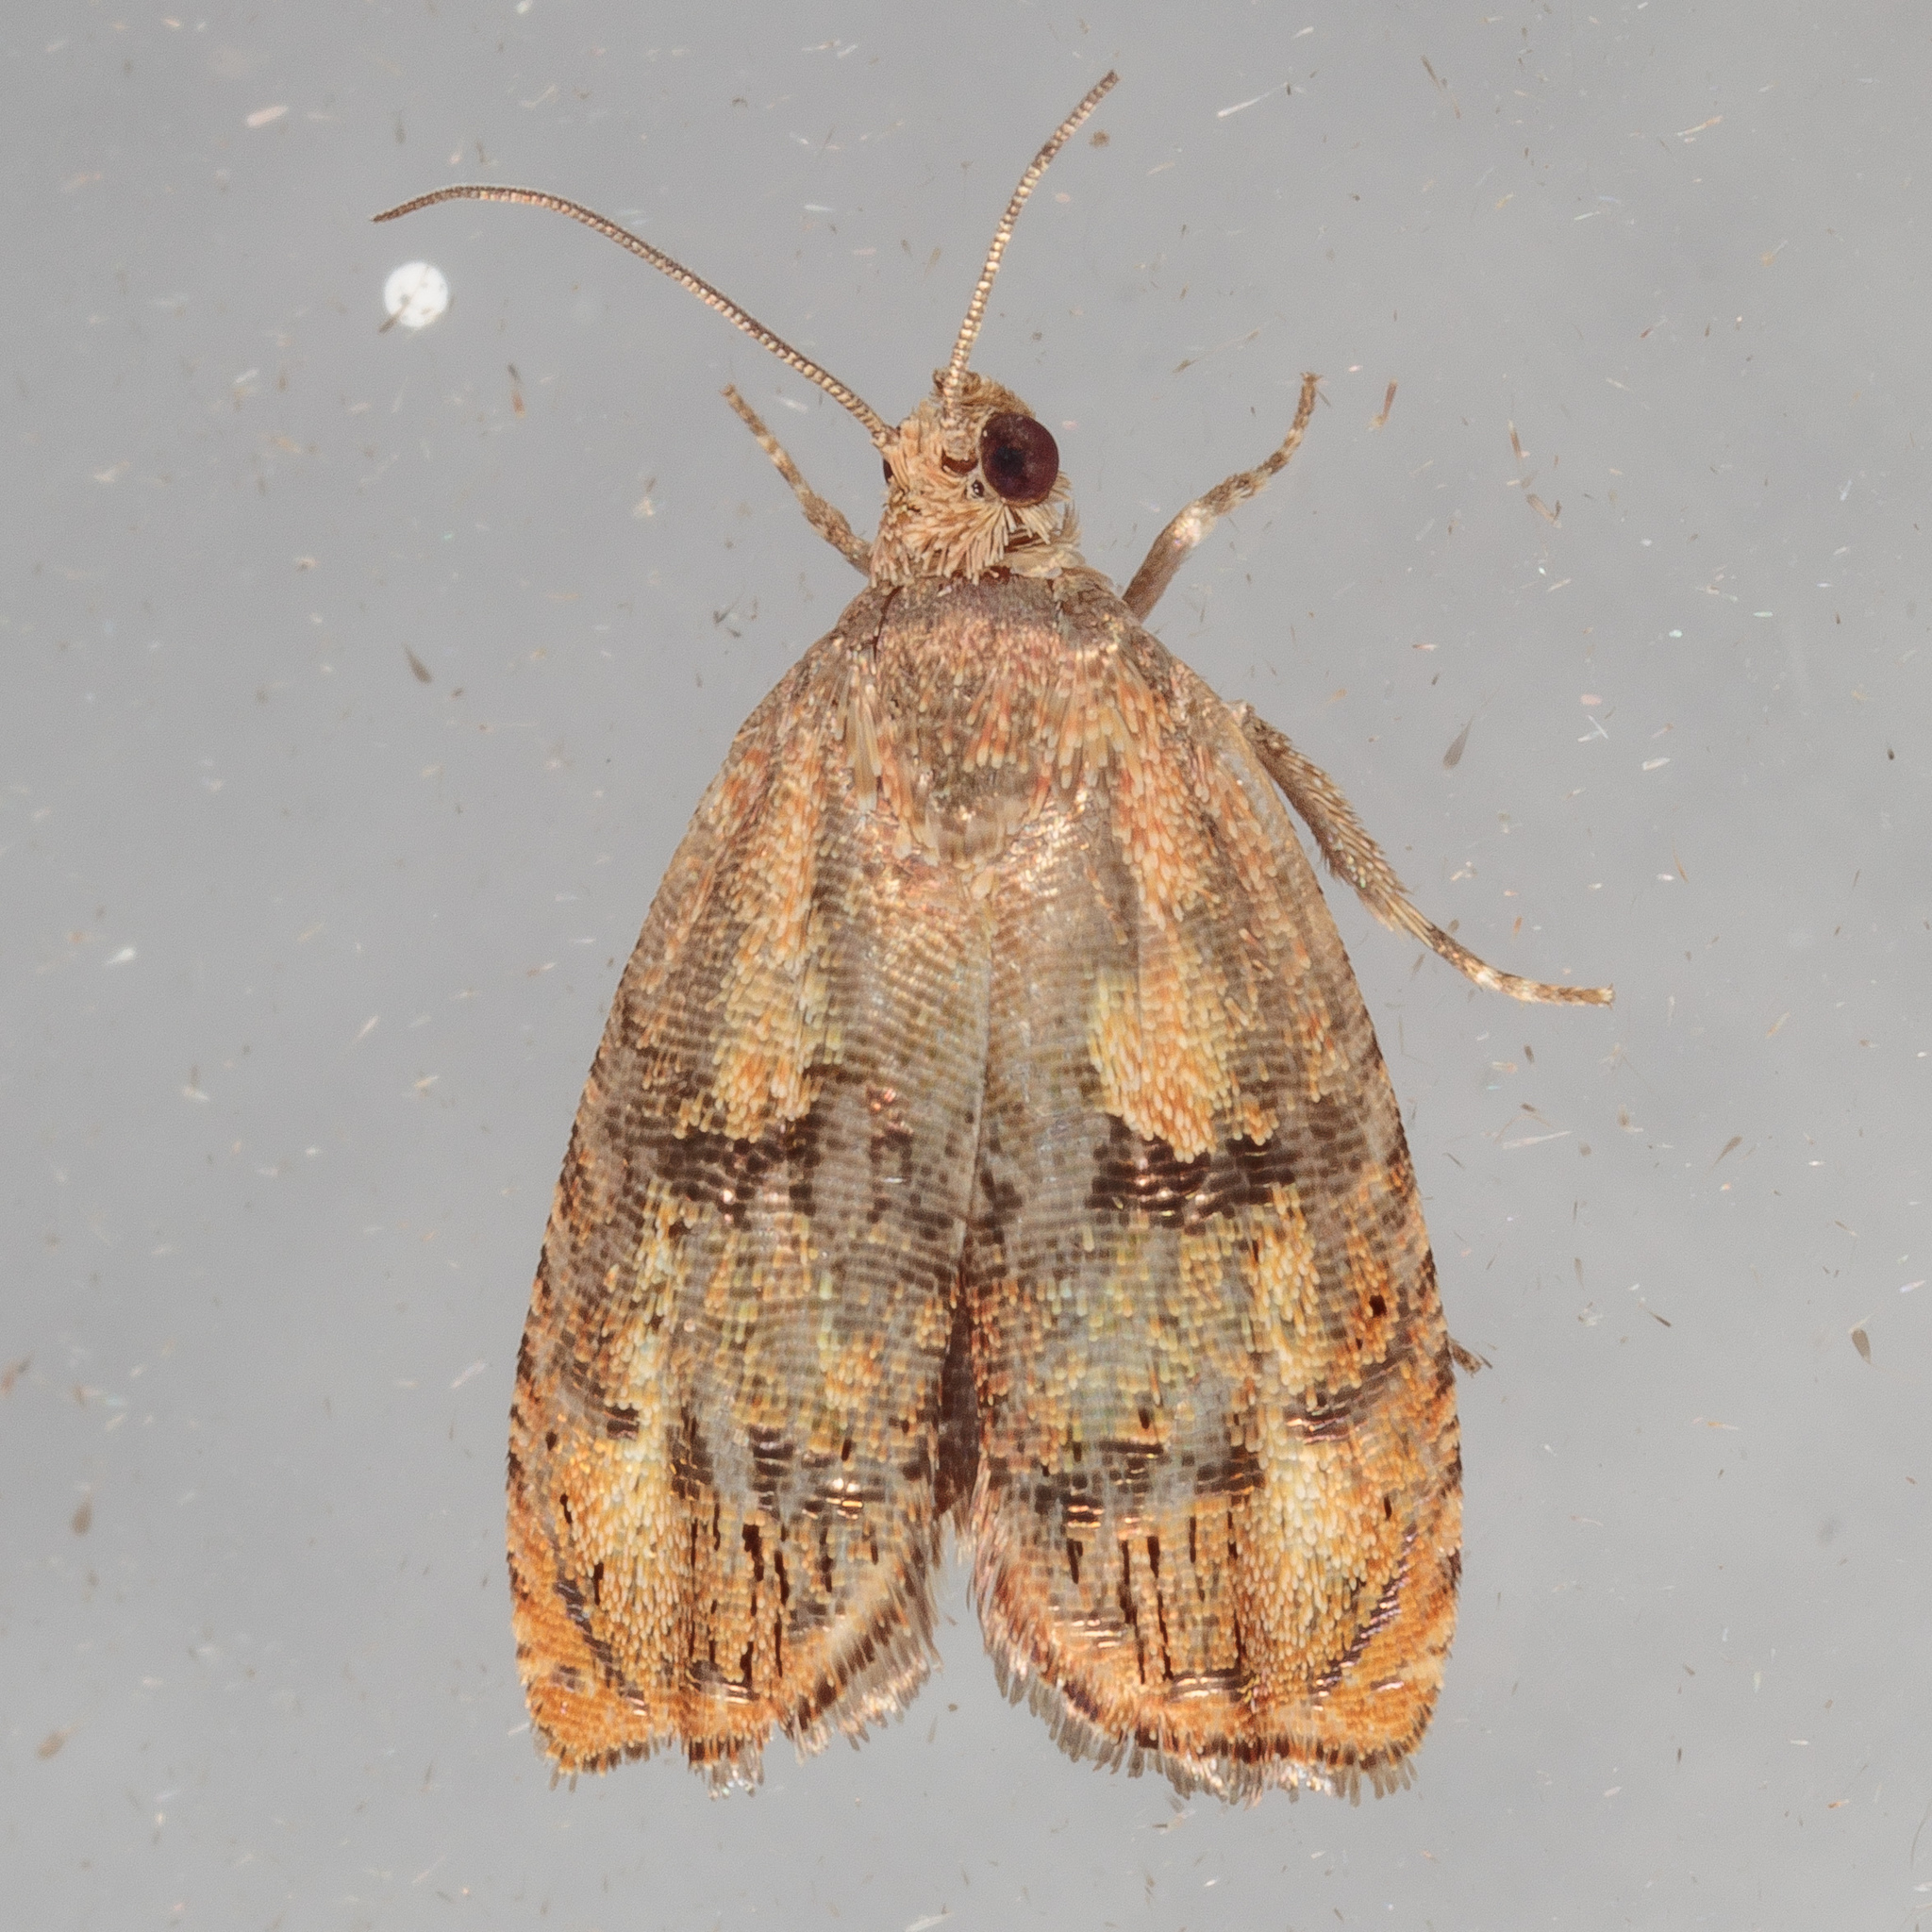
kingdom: Animalia
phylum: Arthropoda
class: Insecta
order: Lepidoptera
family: Tortricidae
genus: Cydia
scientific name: Cydia latiferreana
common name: Filbertworm moth
